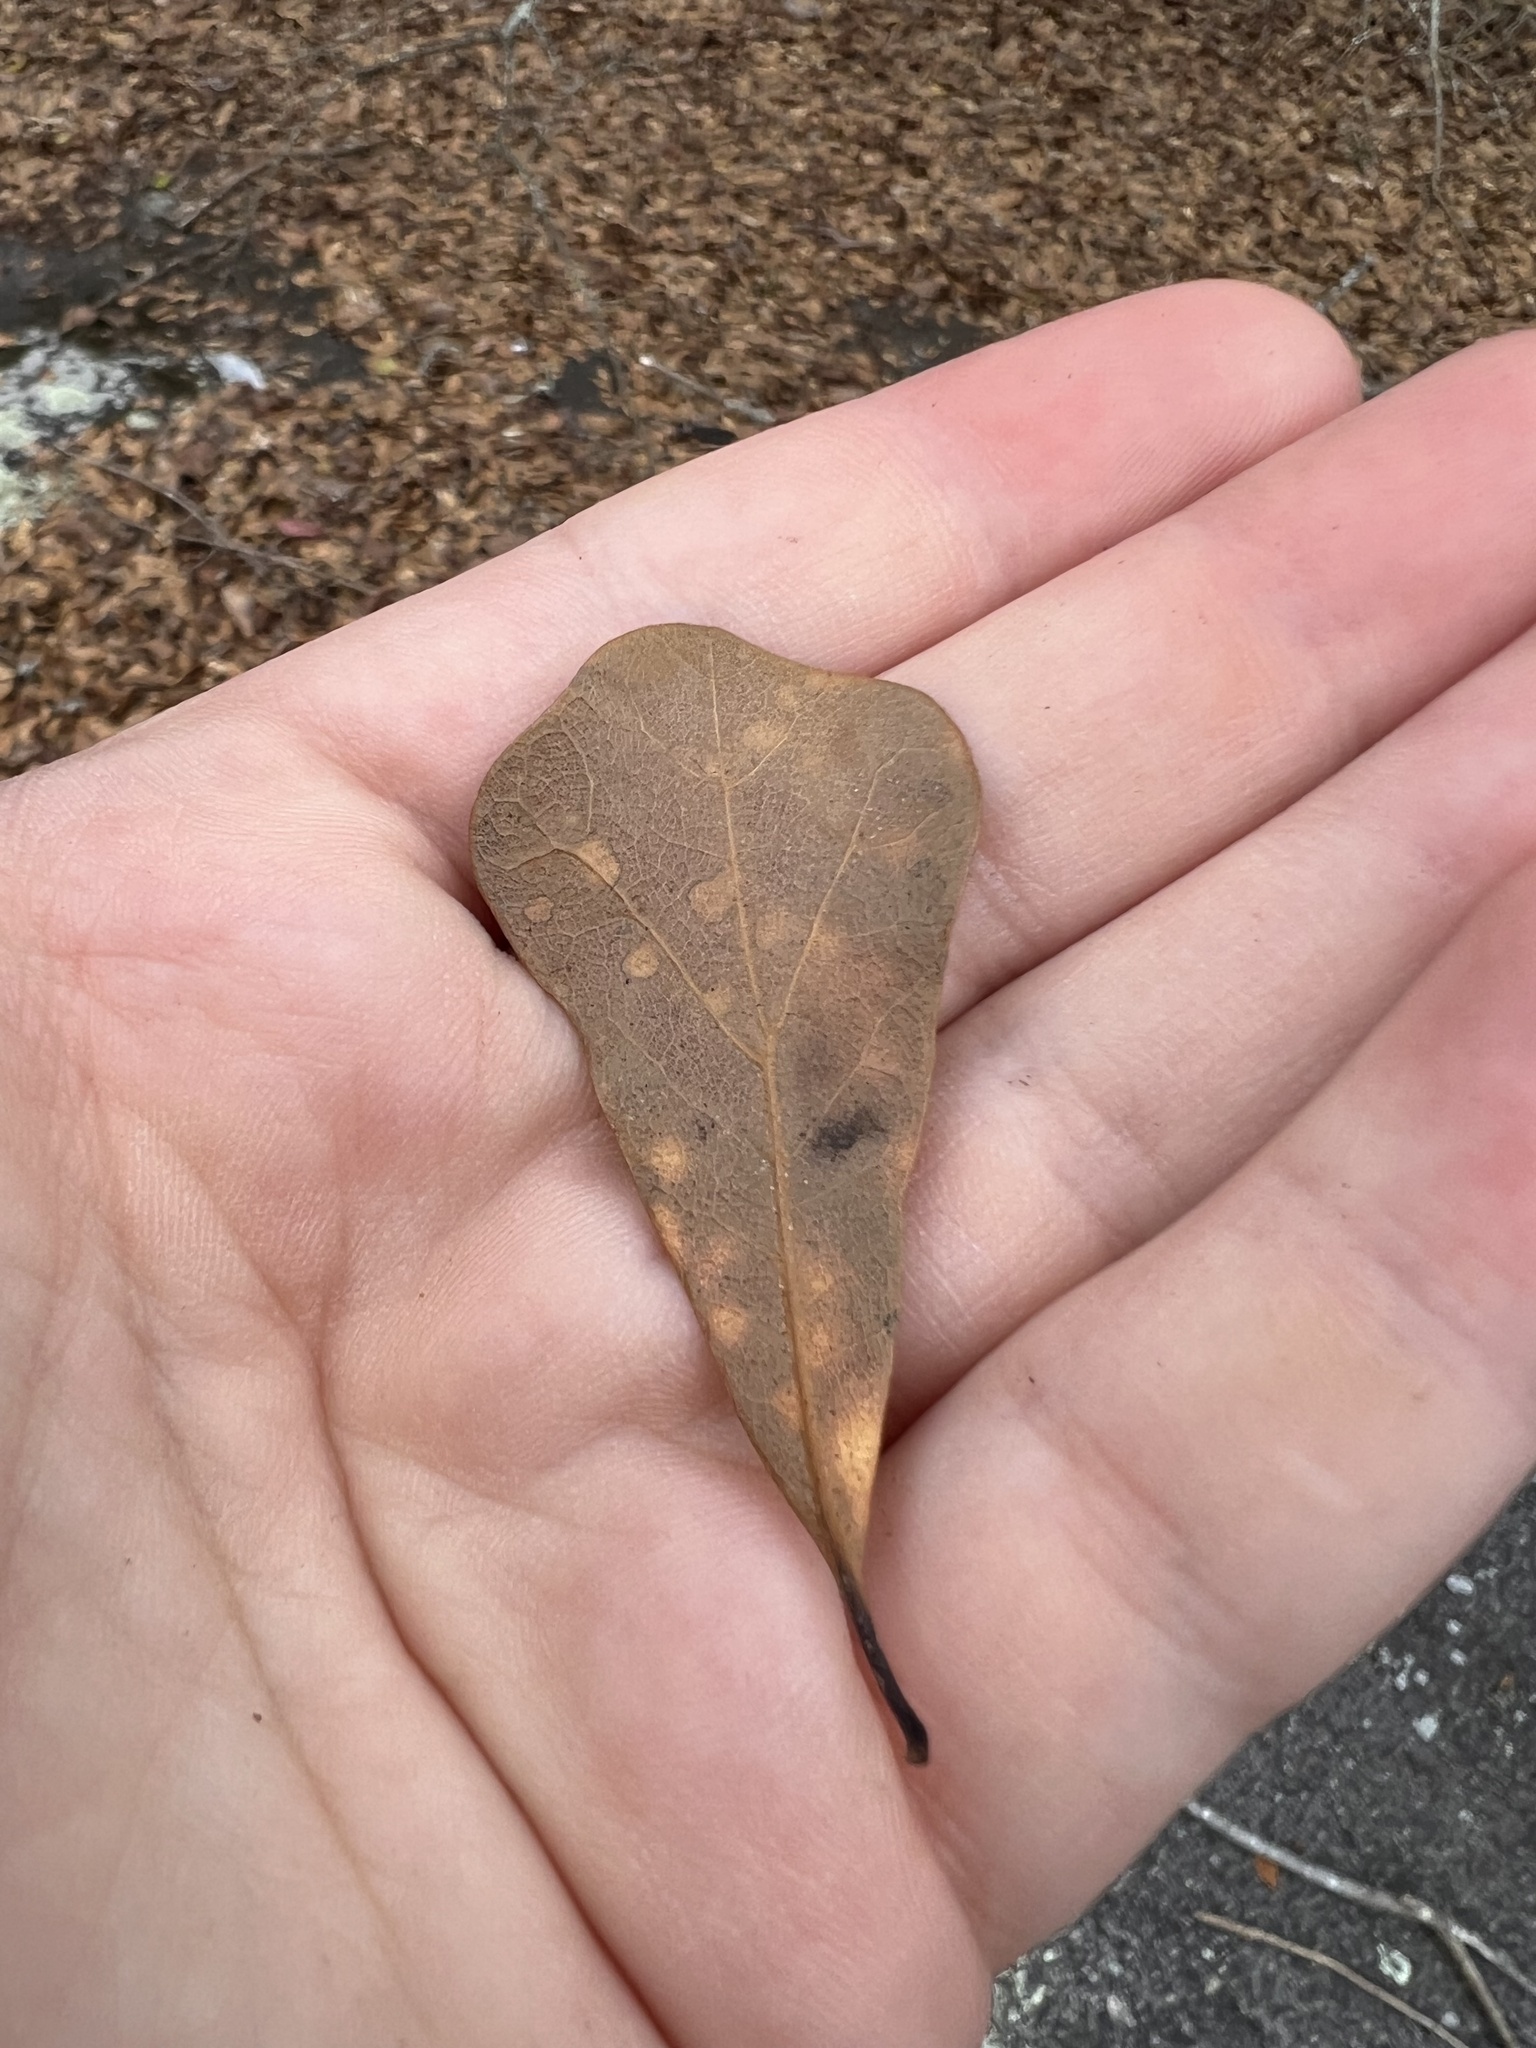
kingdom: Plantae
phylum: Tracheophyta
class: Magnoliopsida
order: Fagales
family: Fagaceae
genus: Quercus
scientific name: Quercus nigra
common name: Water oak
